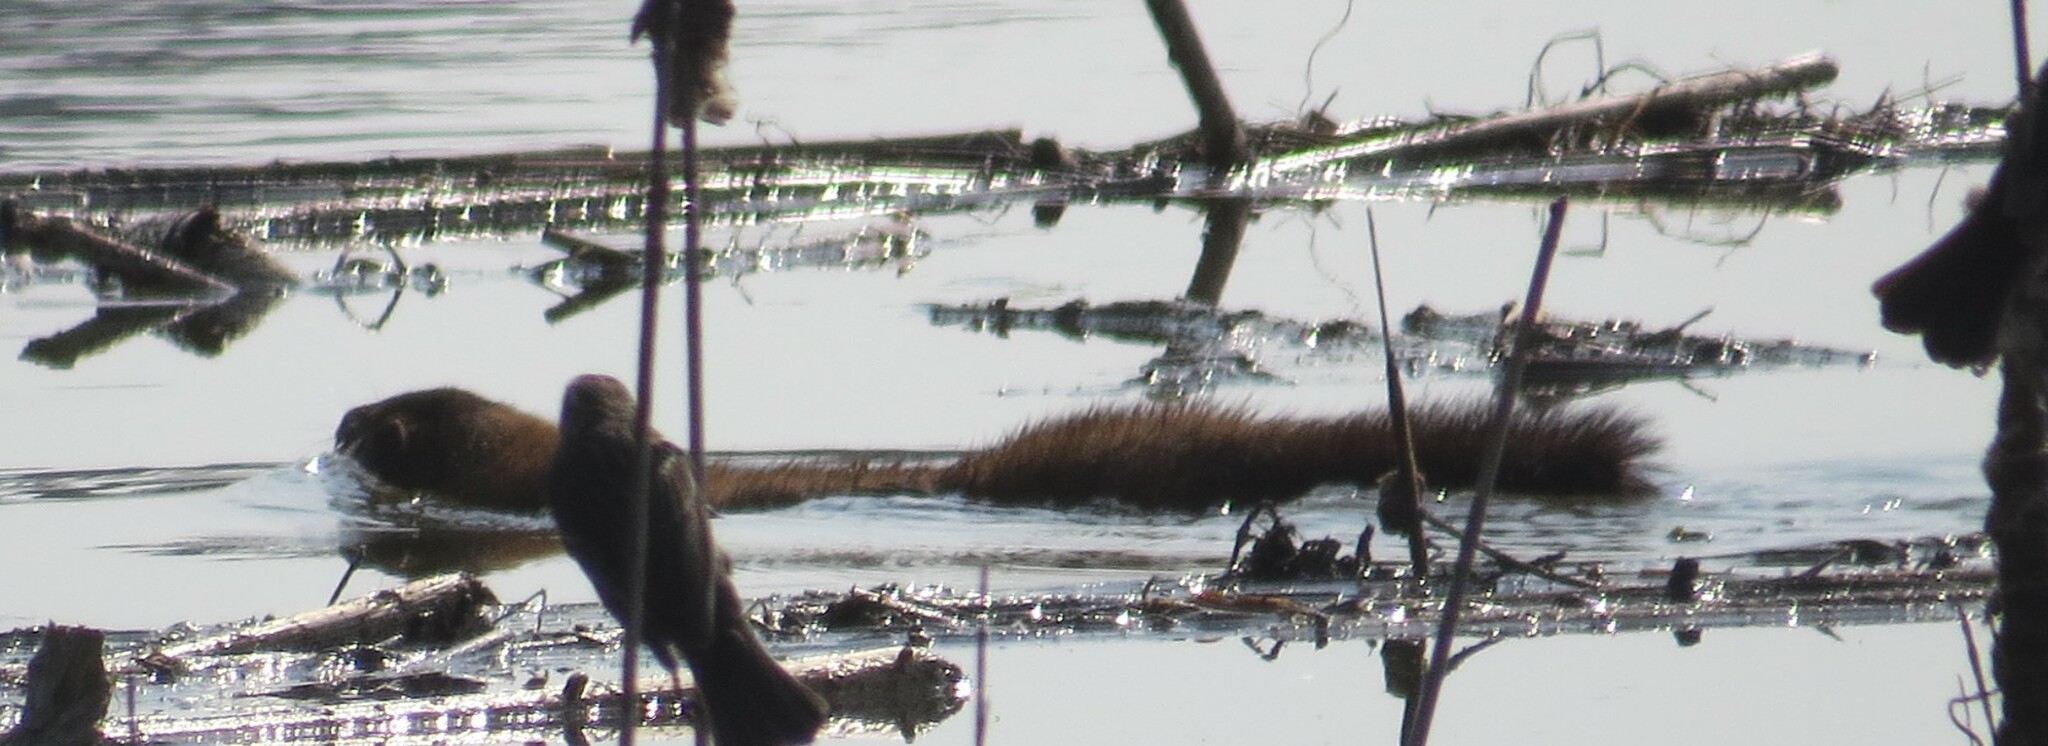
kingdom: Animalia
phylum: Chordata
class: Mammalia
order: Carnivora
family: Mustelidae
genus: Mustela
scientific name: Mustela
